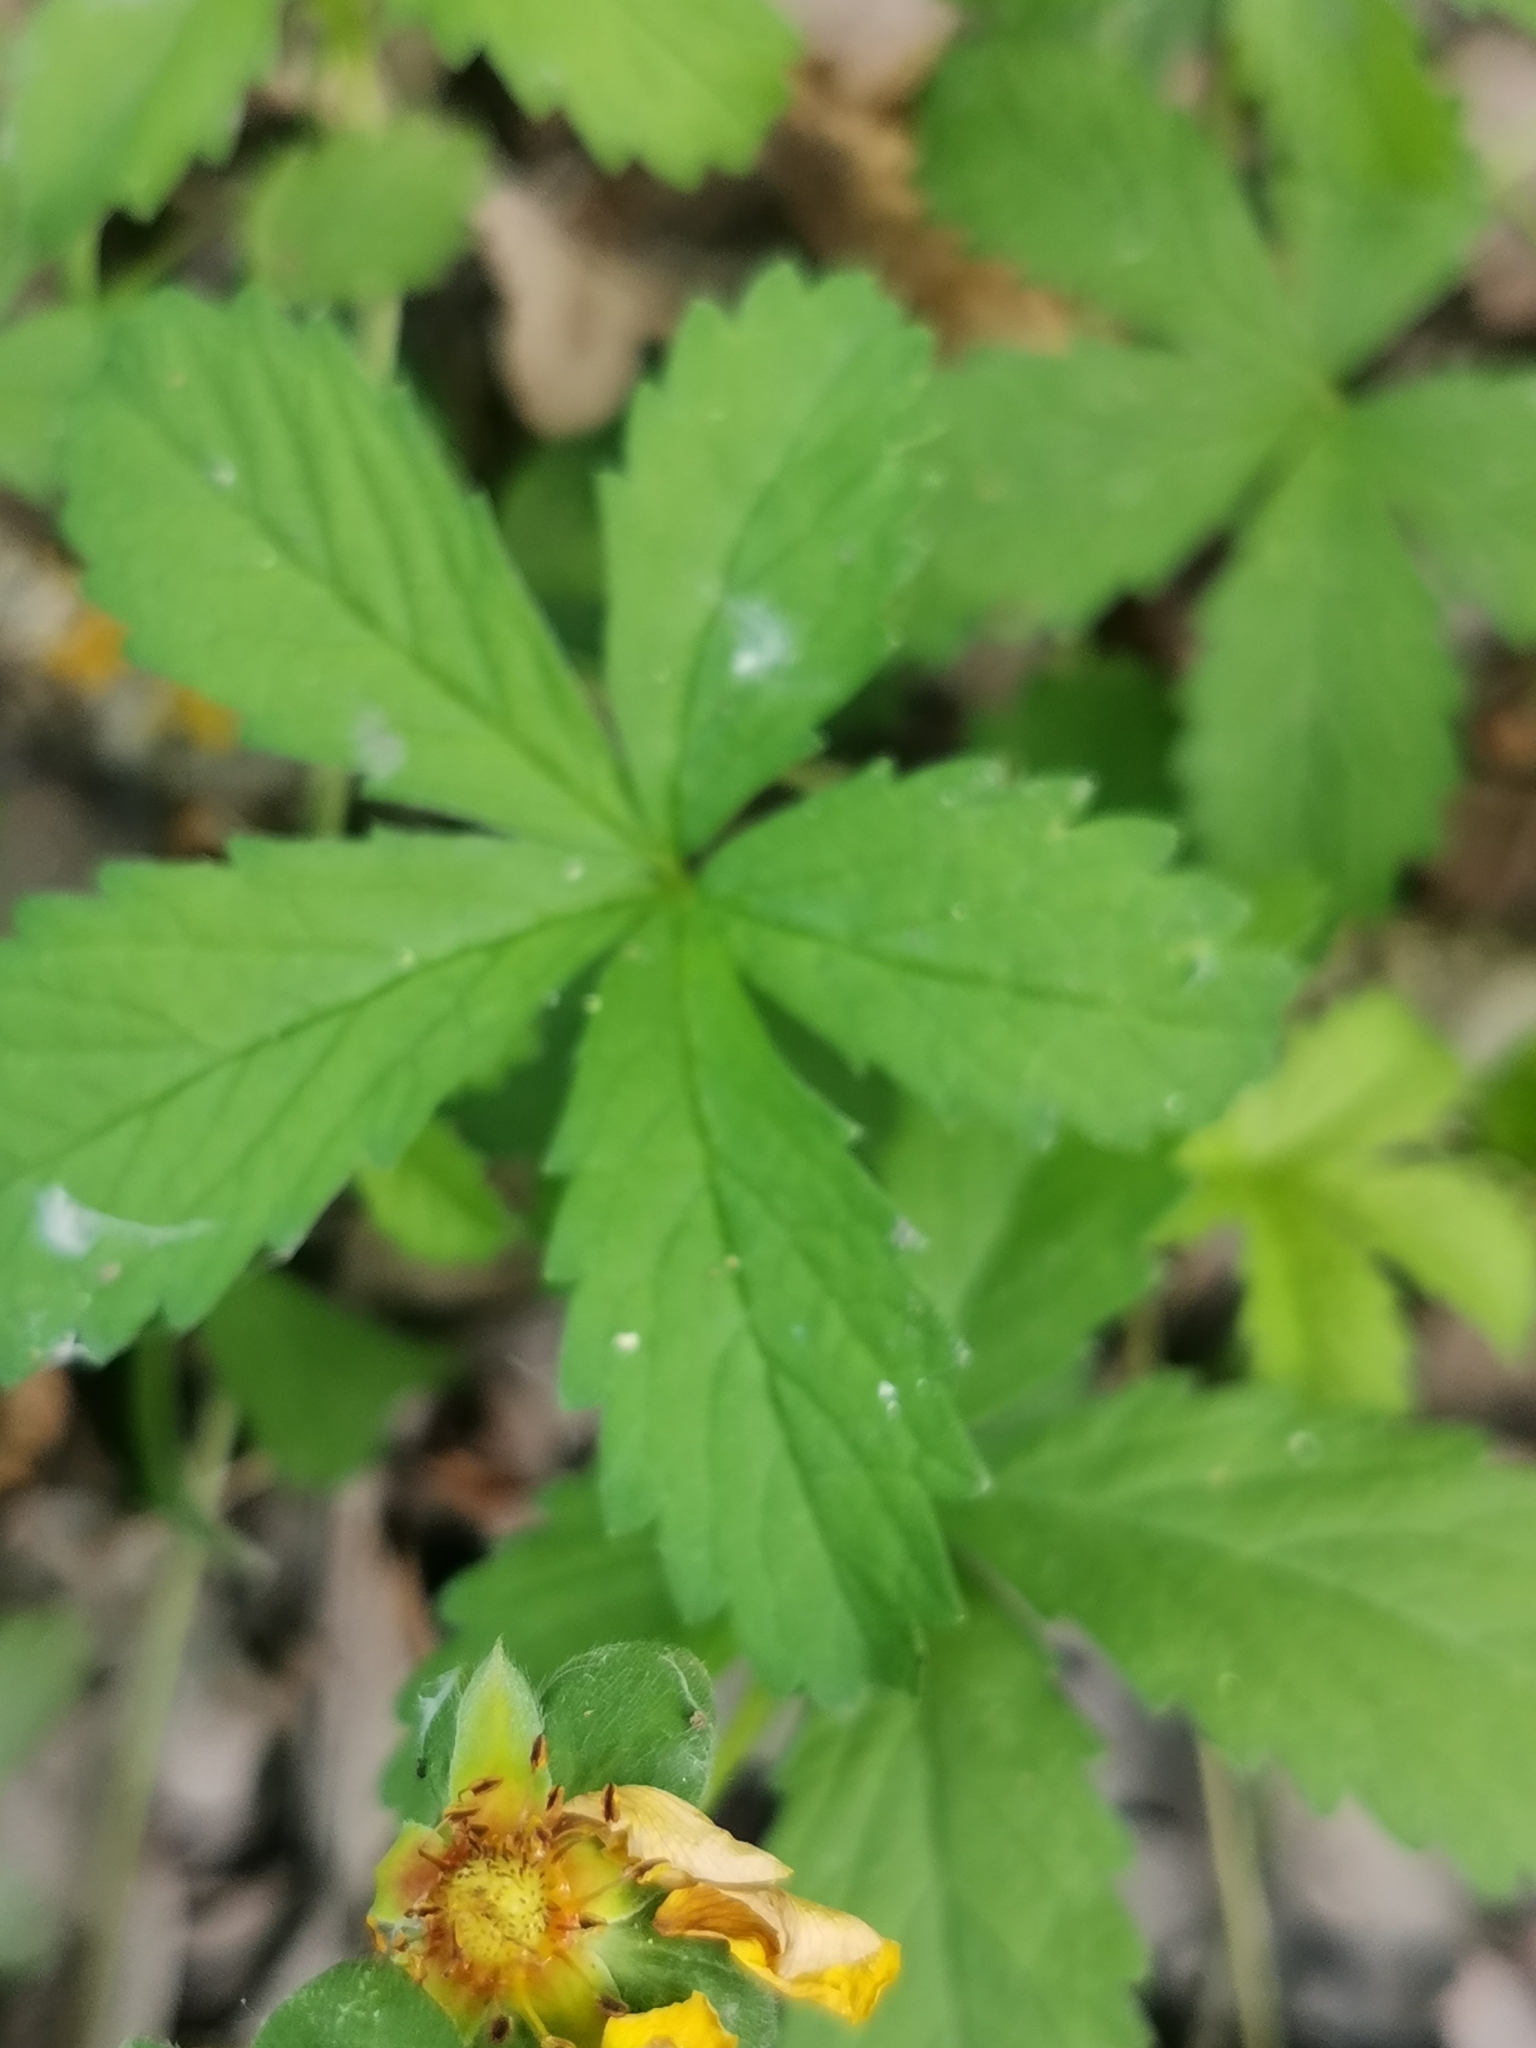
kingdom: Plantae
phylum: Tracheophyta
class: Magnoliopsida
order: Rosales
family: Rosaceae
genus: Potentilla
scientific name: Potentilla reptans
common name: Creeping cinquefoil
